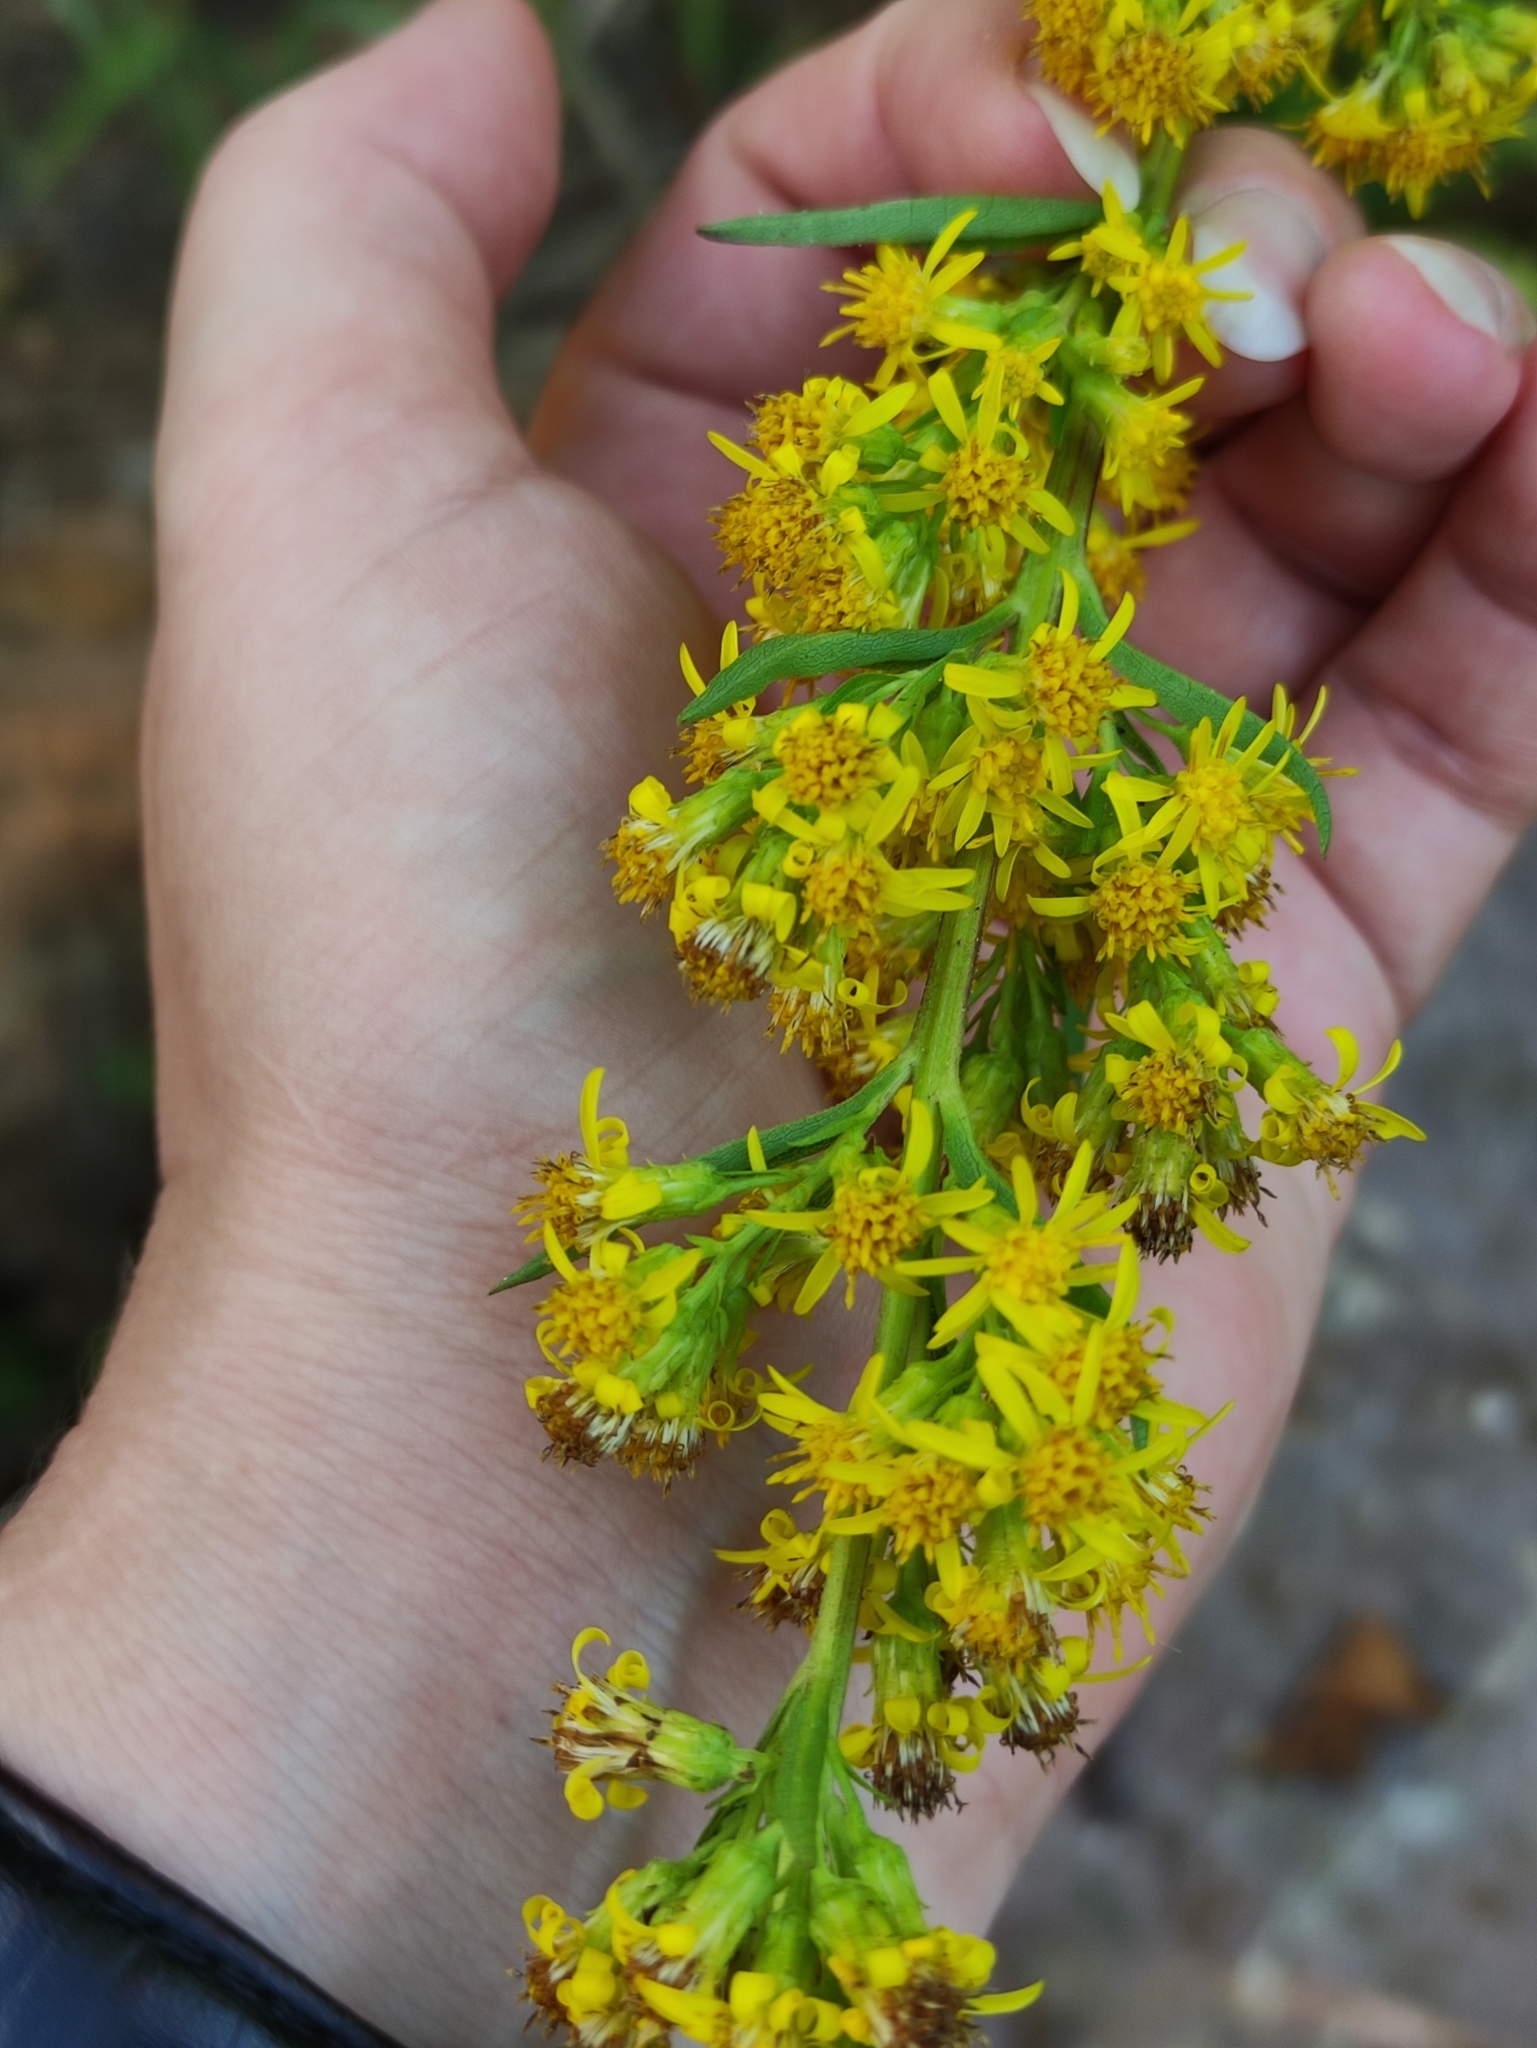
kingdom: Plantae
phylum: Tracheophyta
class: Magnoliopsida
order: Asterales
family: Asteraceae
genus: Solidago
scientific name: Solidago virgaurea
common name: Goldenrod
